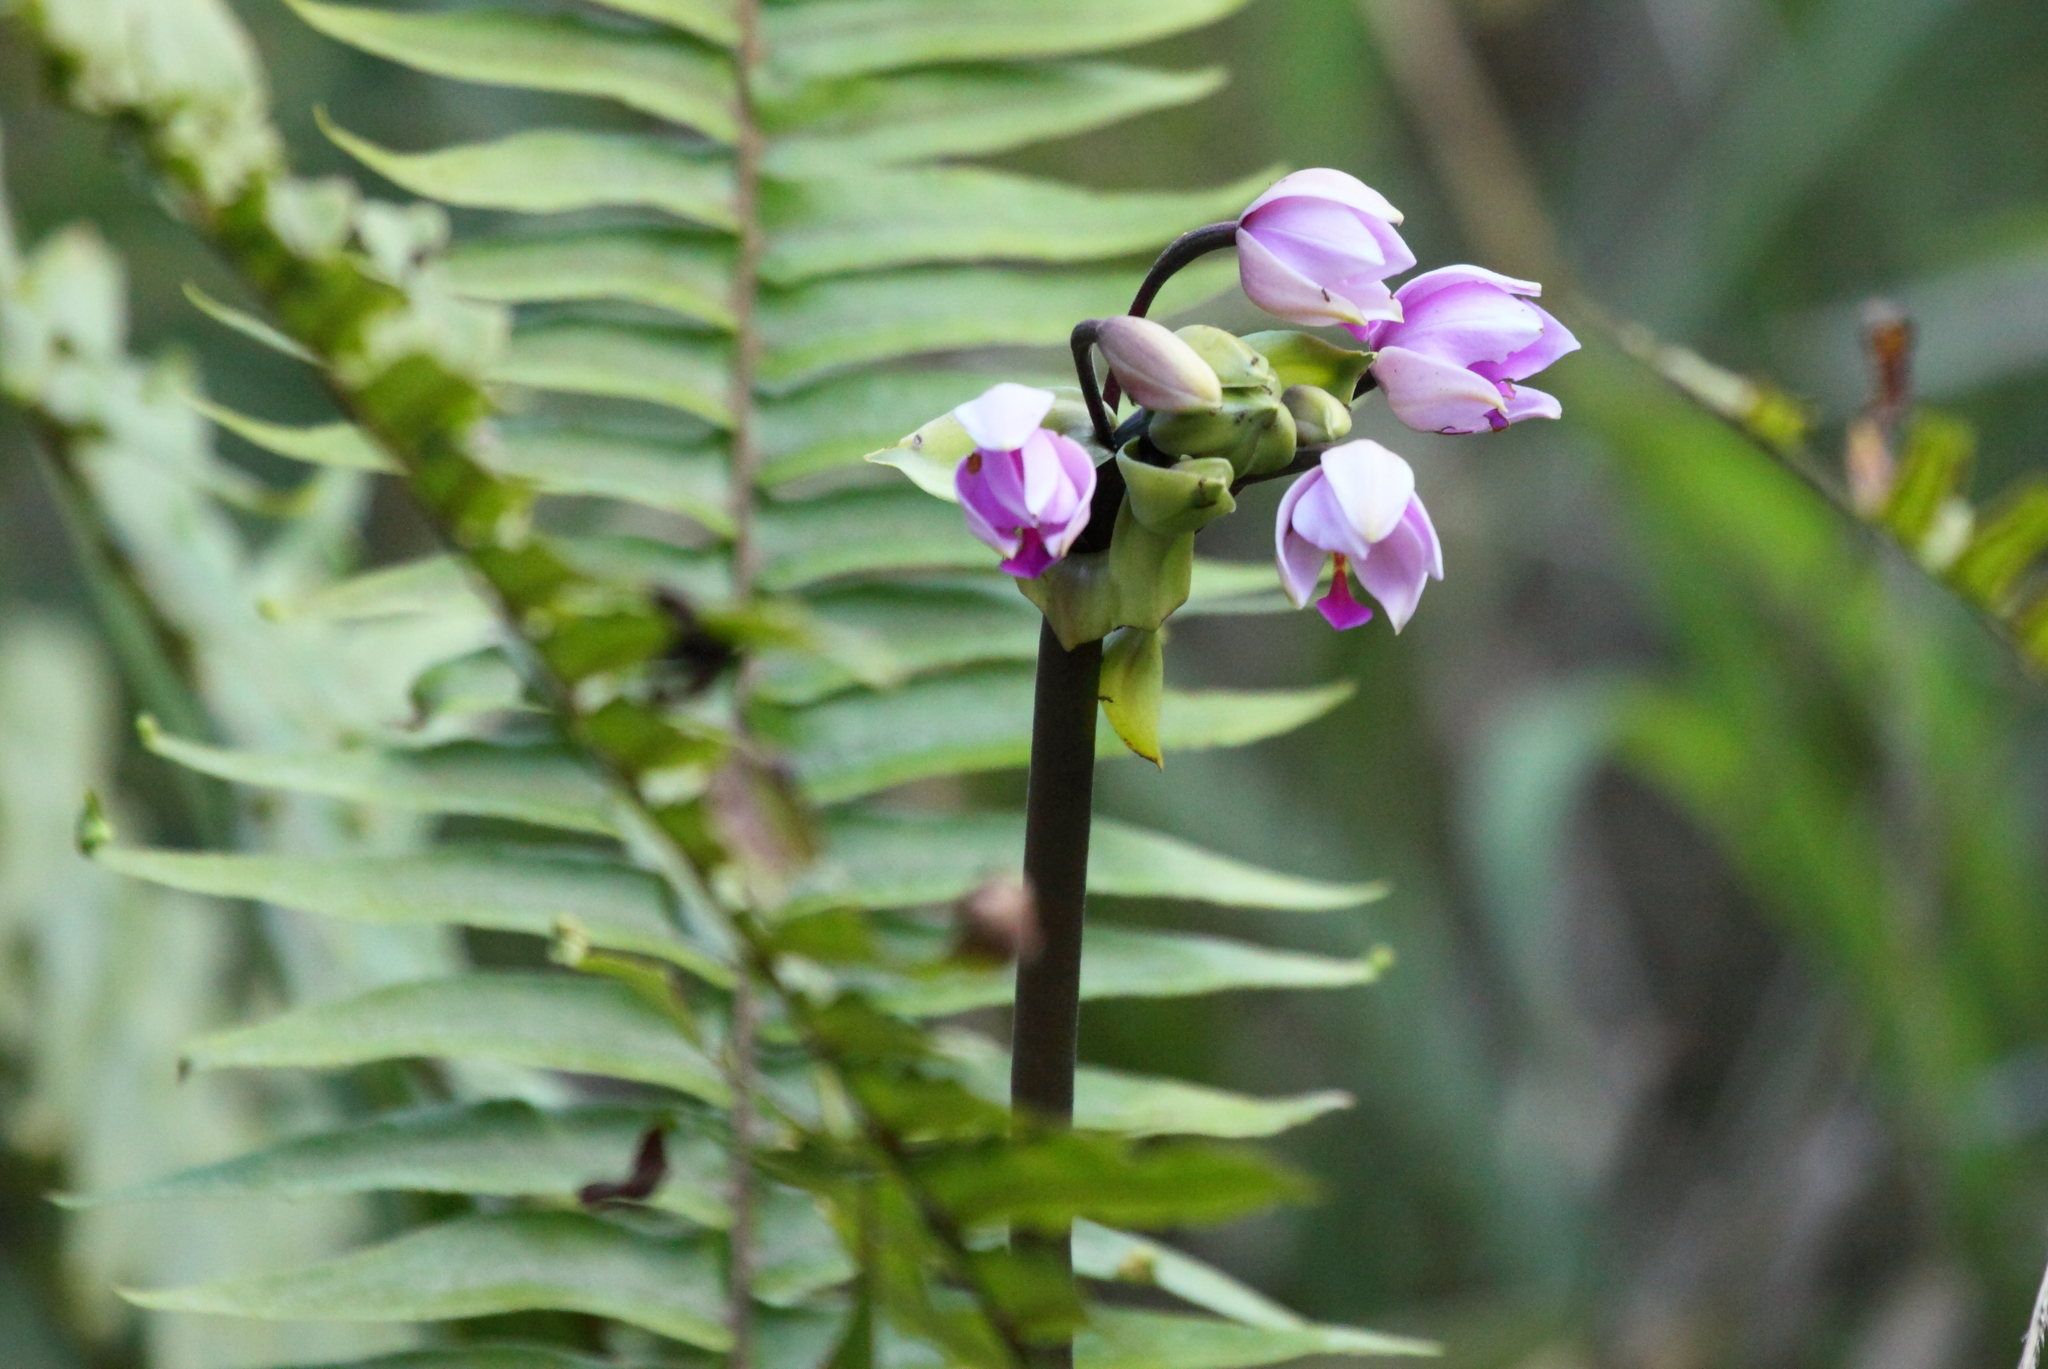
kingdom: Plantae
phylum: Tracheophyta
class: Liliopsida
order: Asparagales
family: Orchidaceae
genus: Spathoglottis
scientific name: Spathoglottis plicata
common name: Philippine ground orchid
